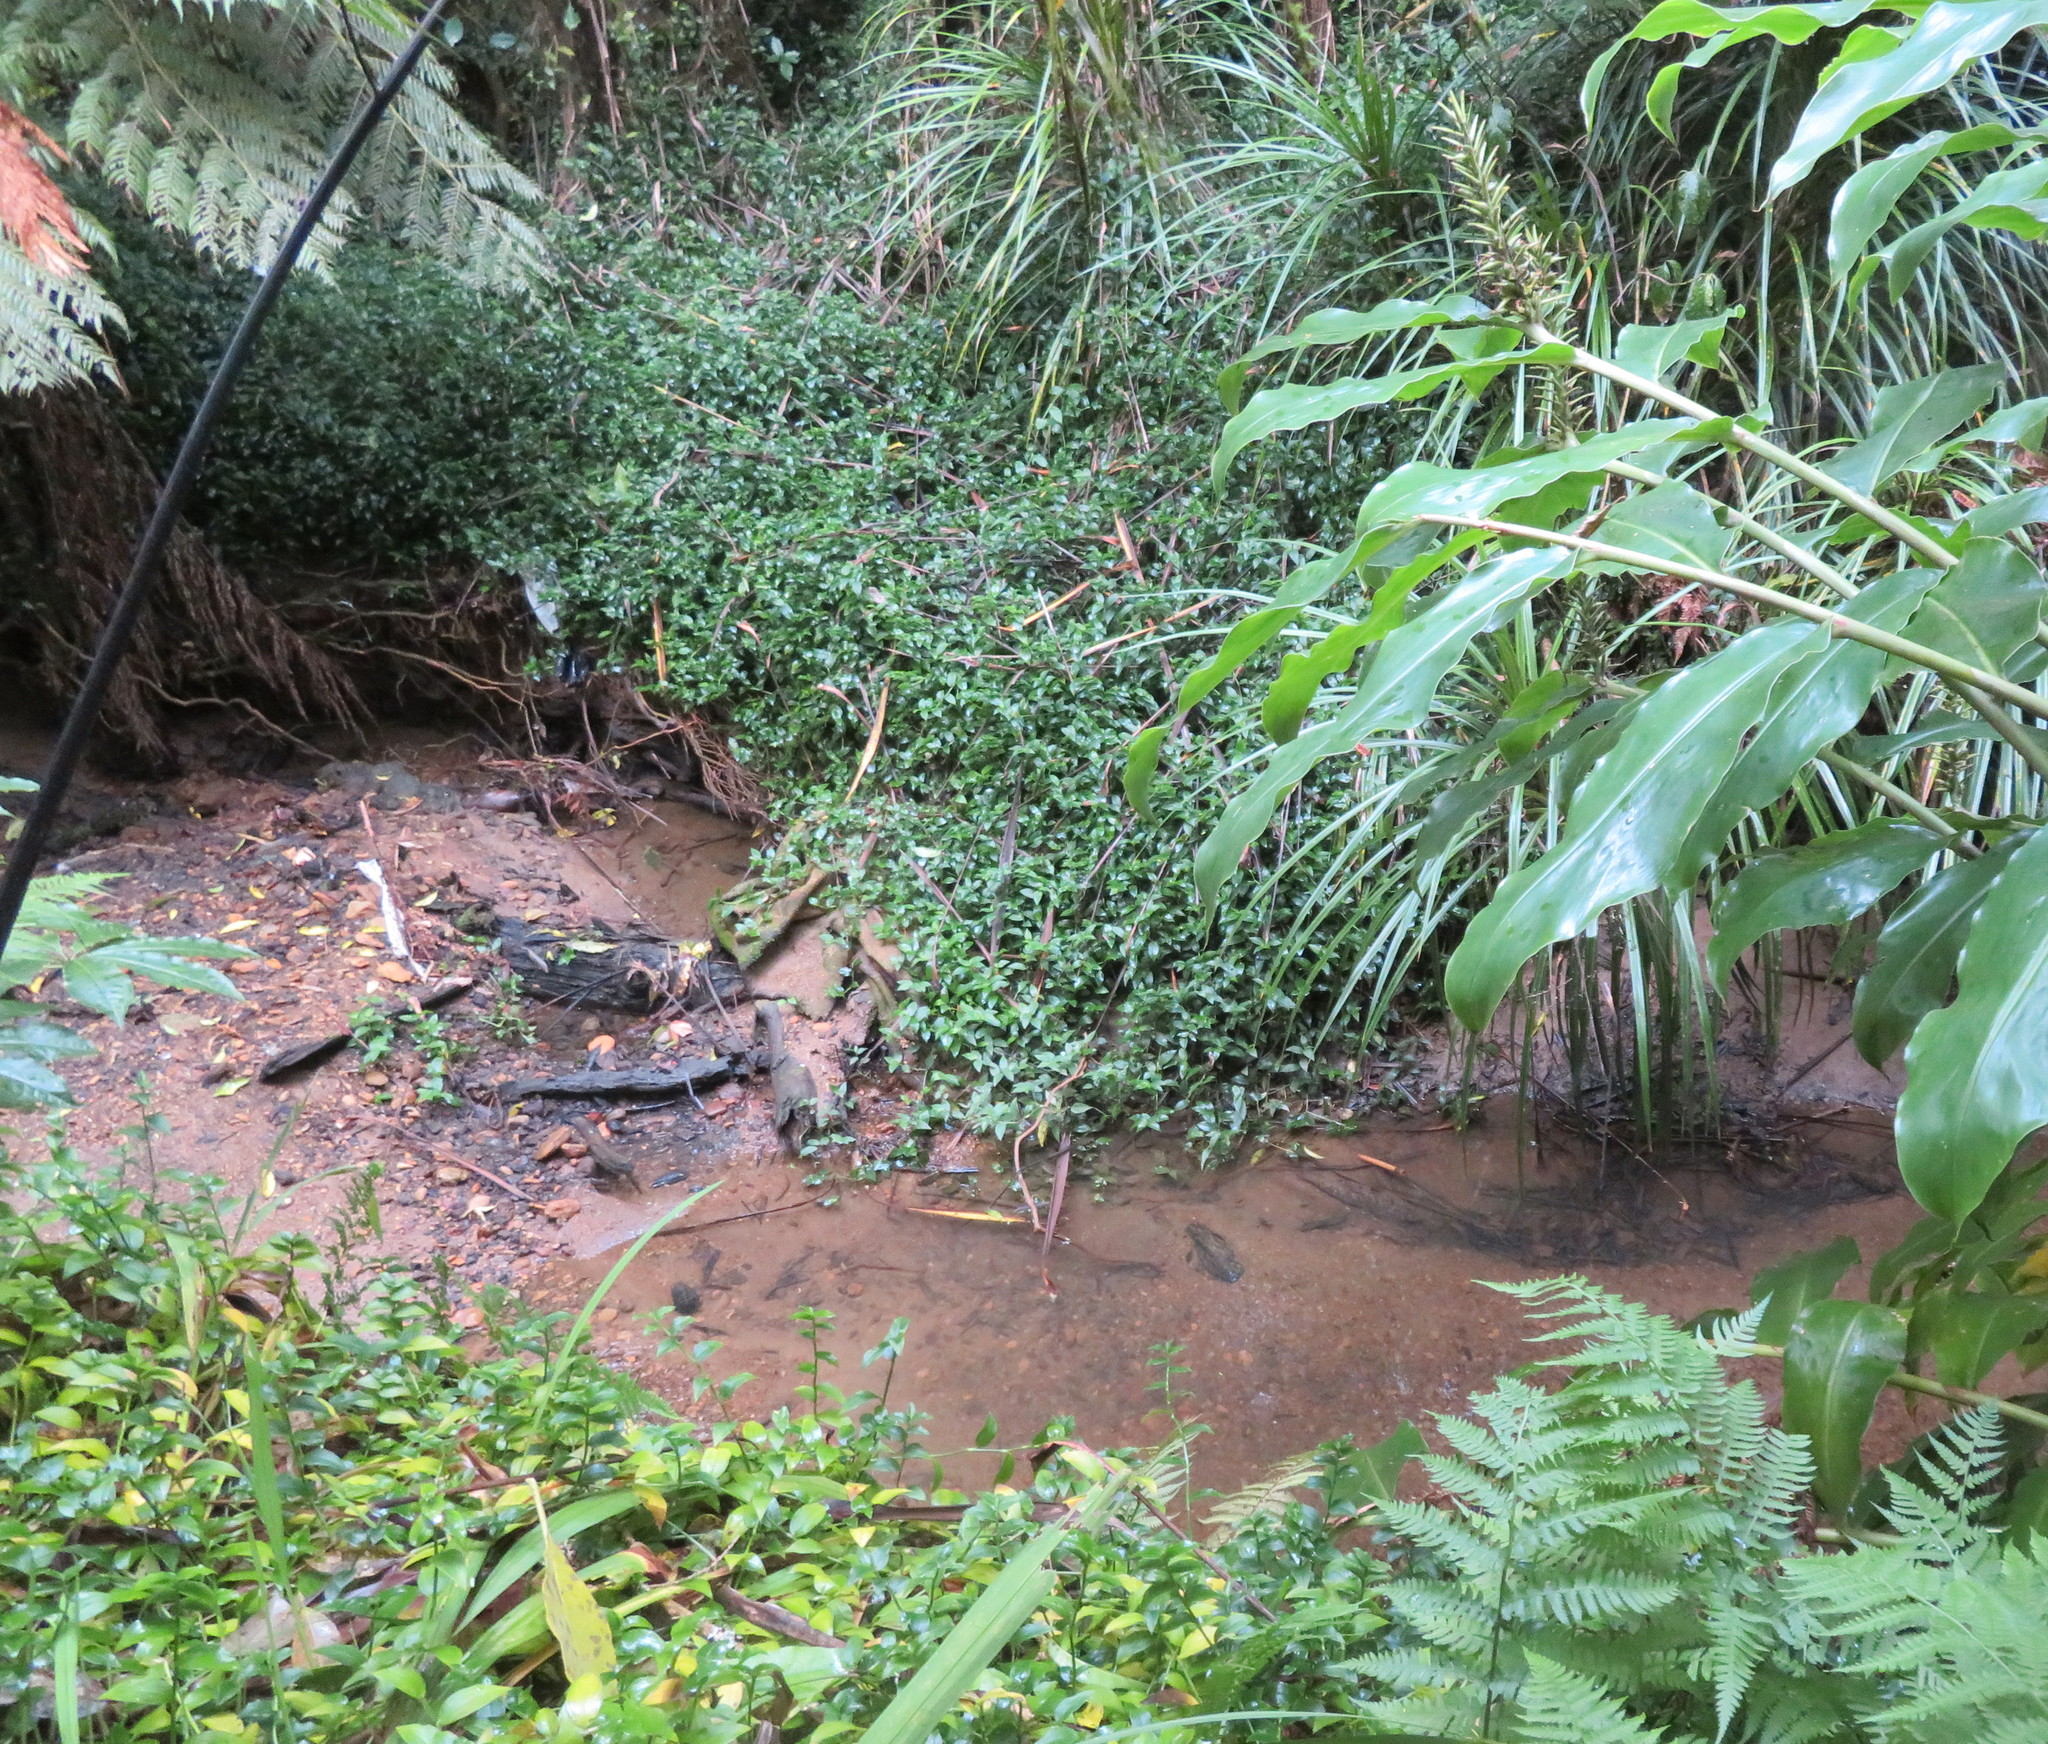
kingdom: Plantae
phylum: Tracheophyta
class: Liliopsida
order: Commelinales
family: Commelinaceae
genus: Tradescantia
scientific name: Tradescantia fluminensis
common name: Wandering-jew
